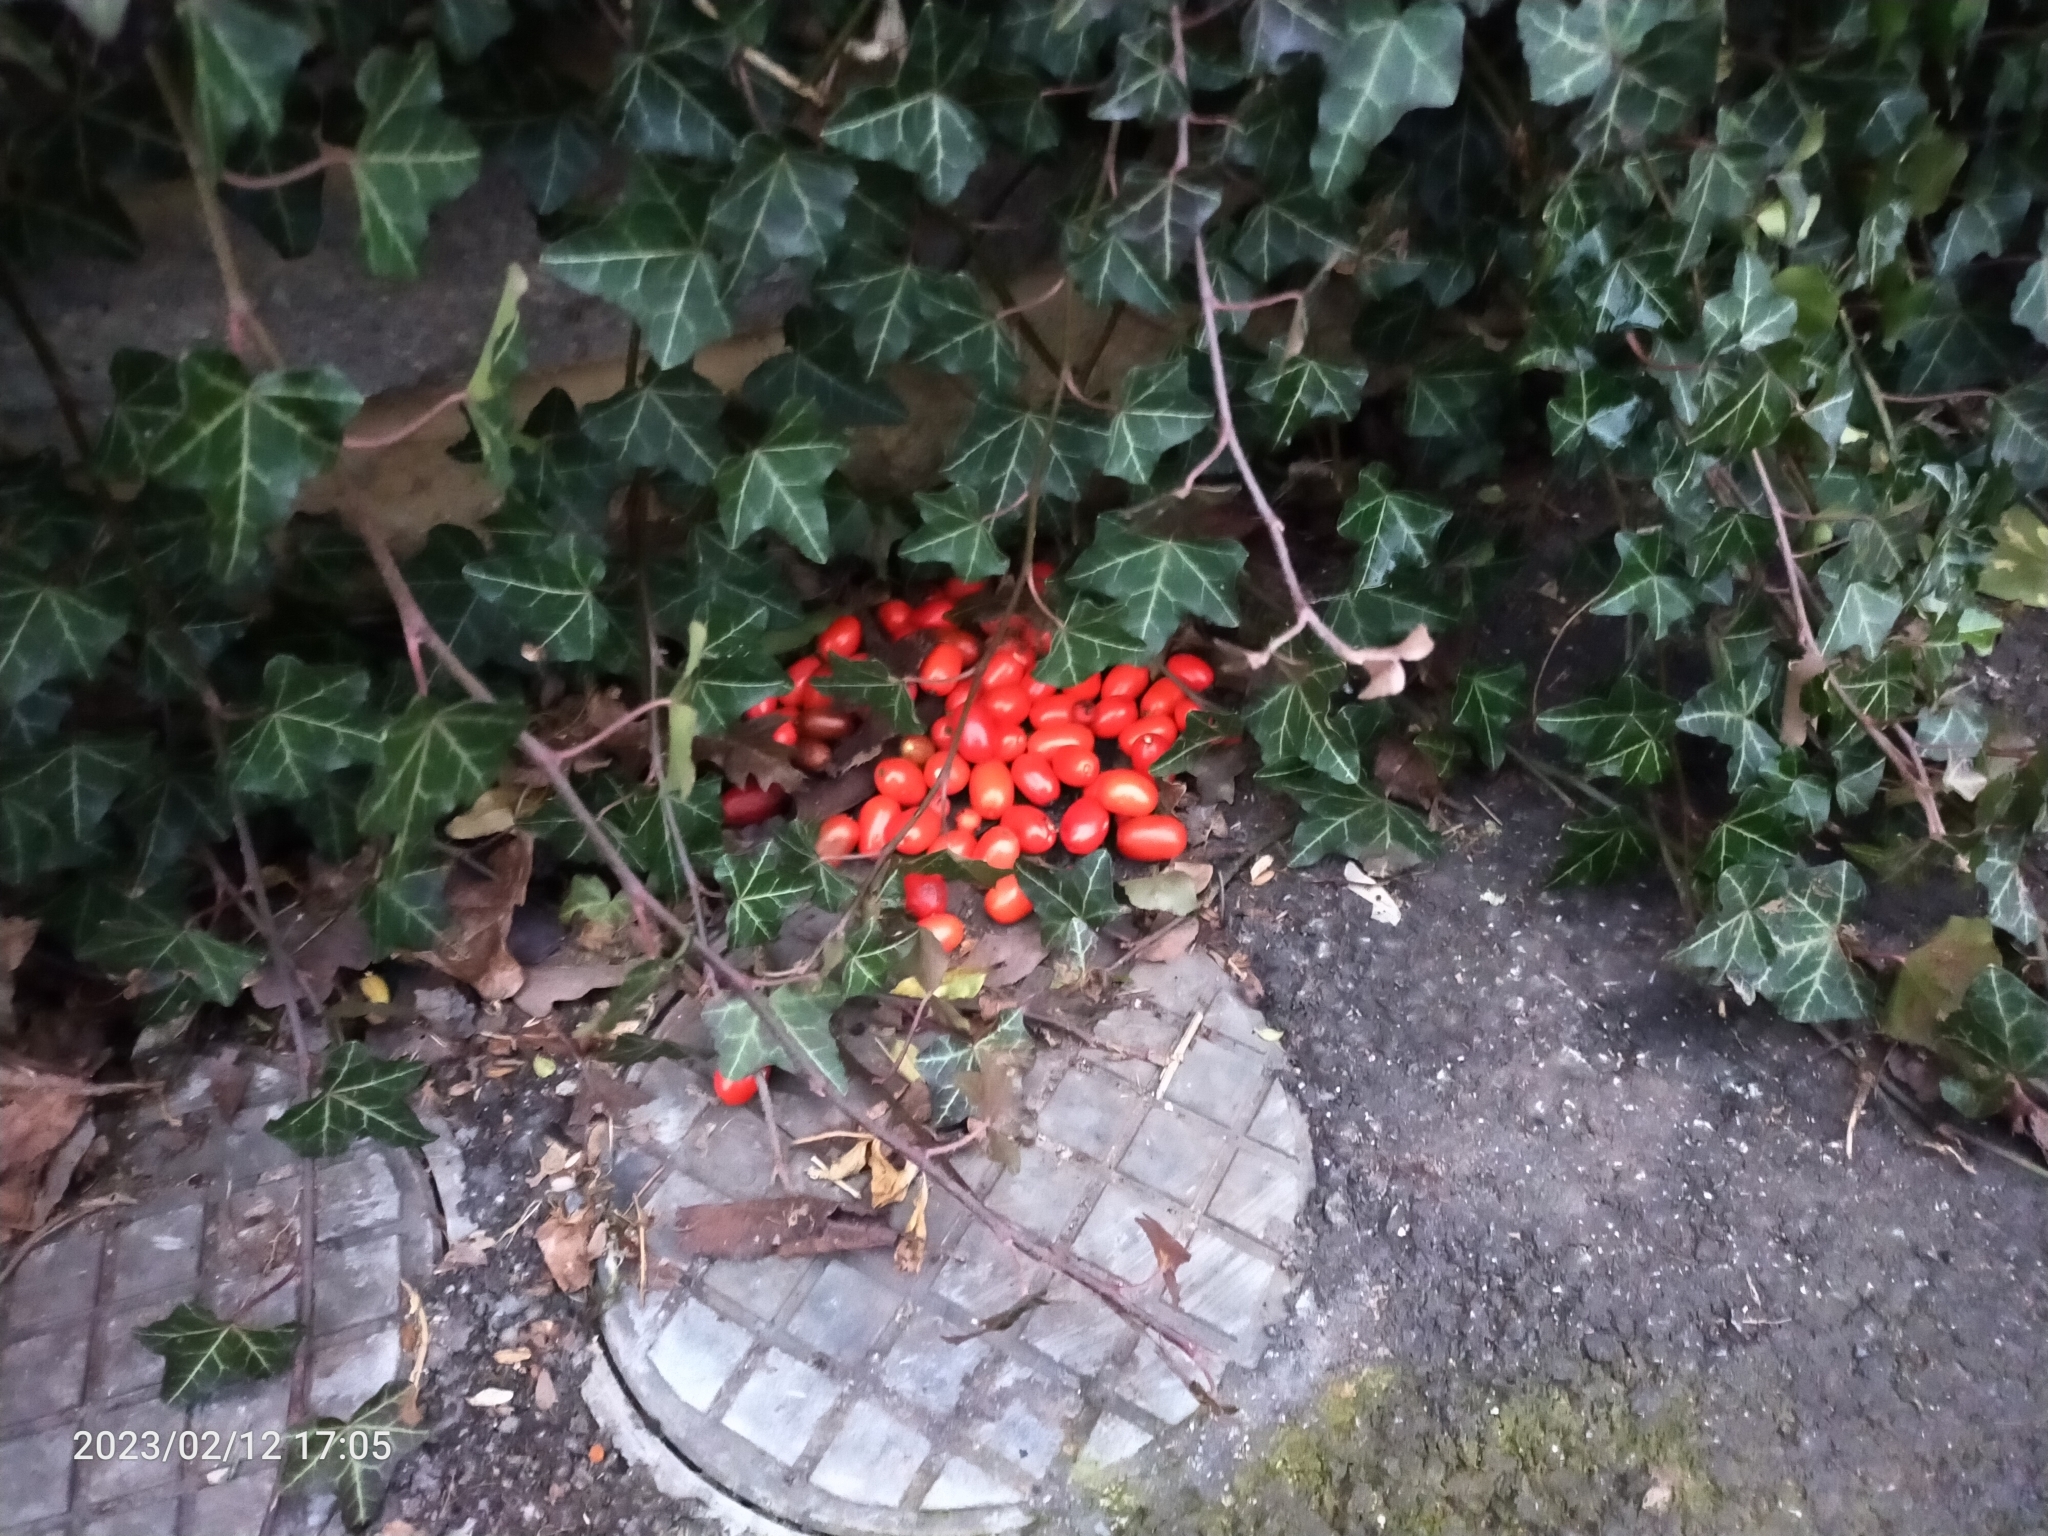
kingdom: Plantae
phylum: Tracheophyta
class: Magnoliopsida
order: Rosales
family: Rosaceae
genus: Pyracantha
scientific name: Pyracantha coccinea
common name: Firethorn
